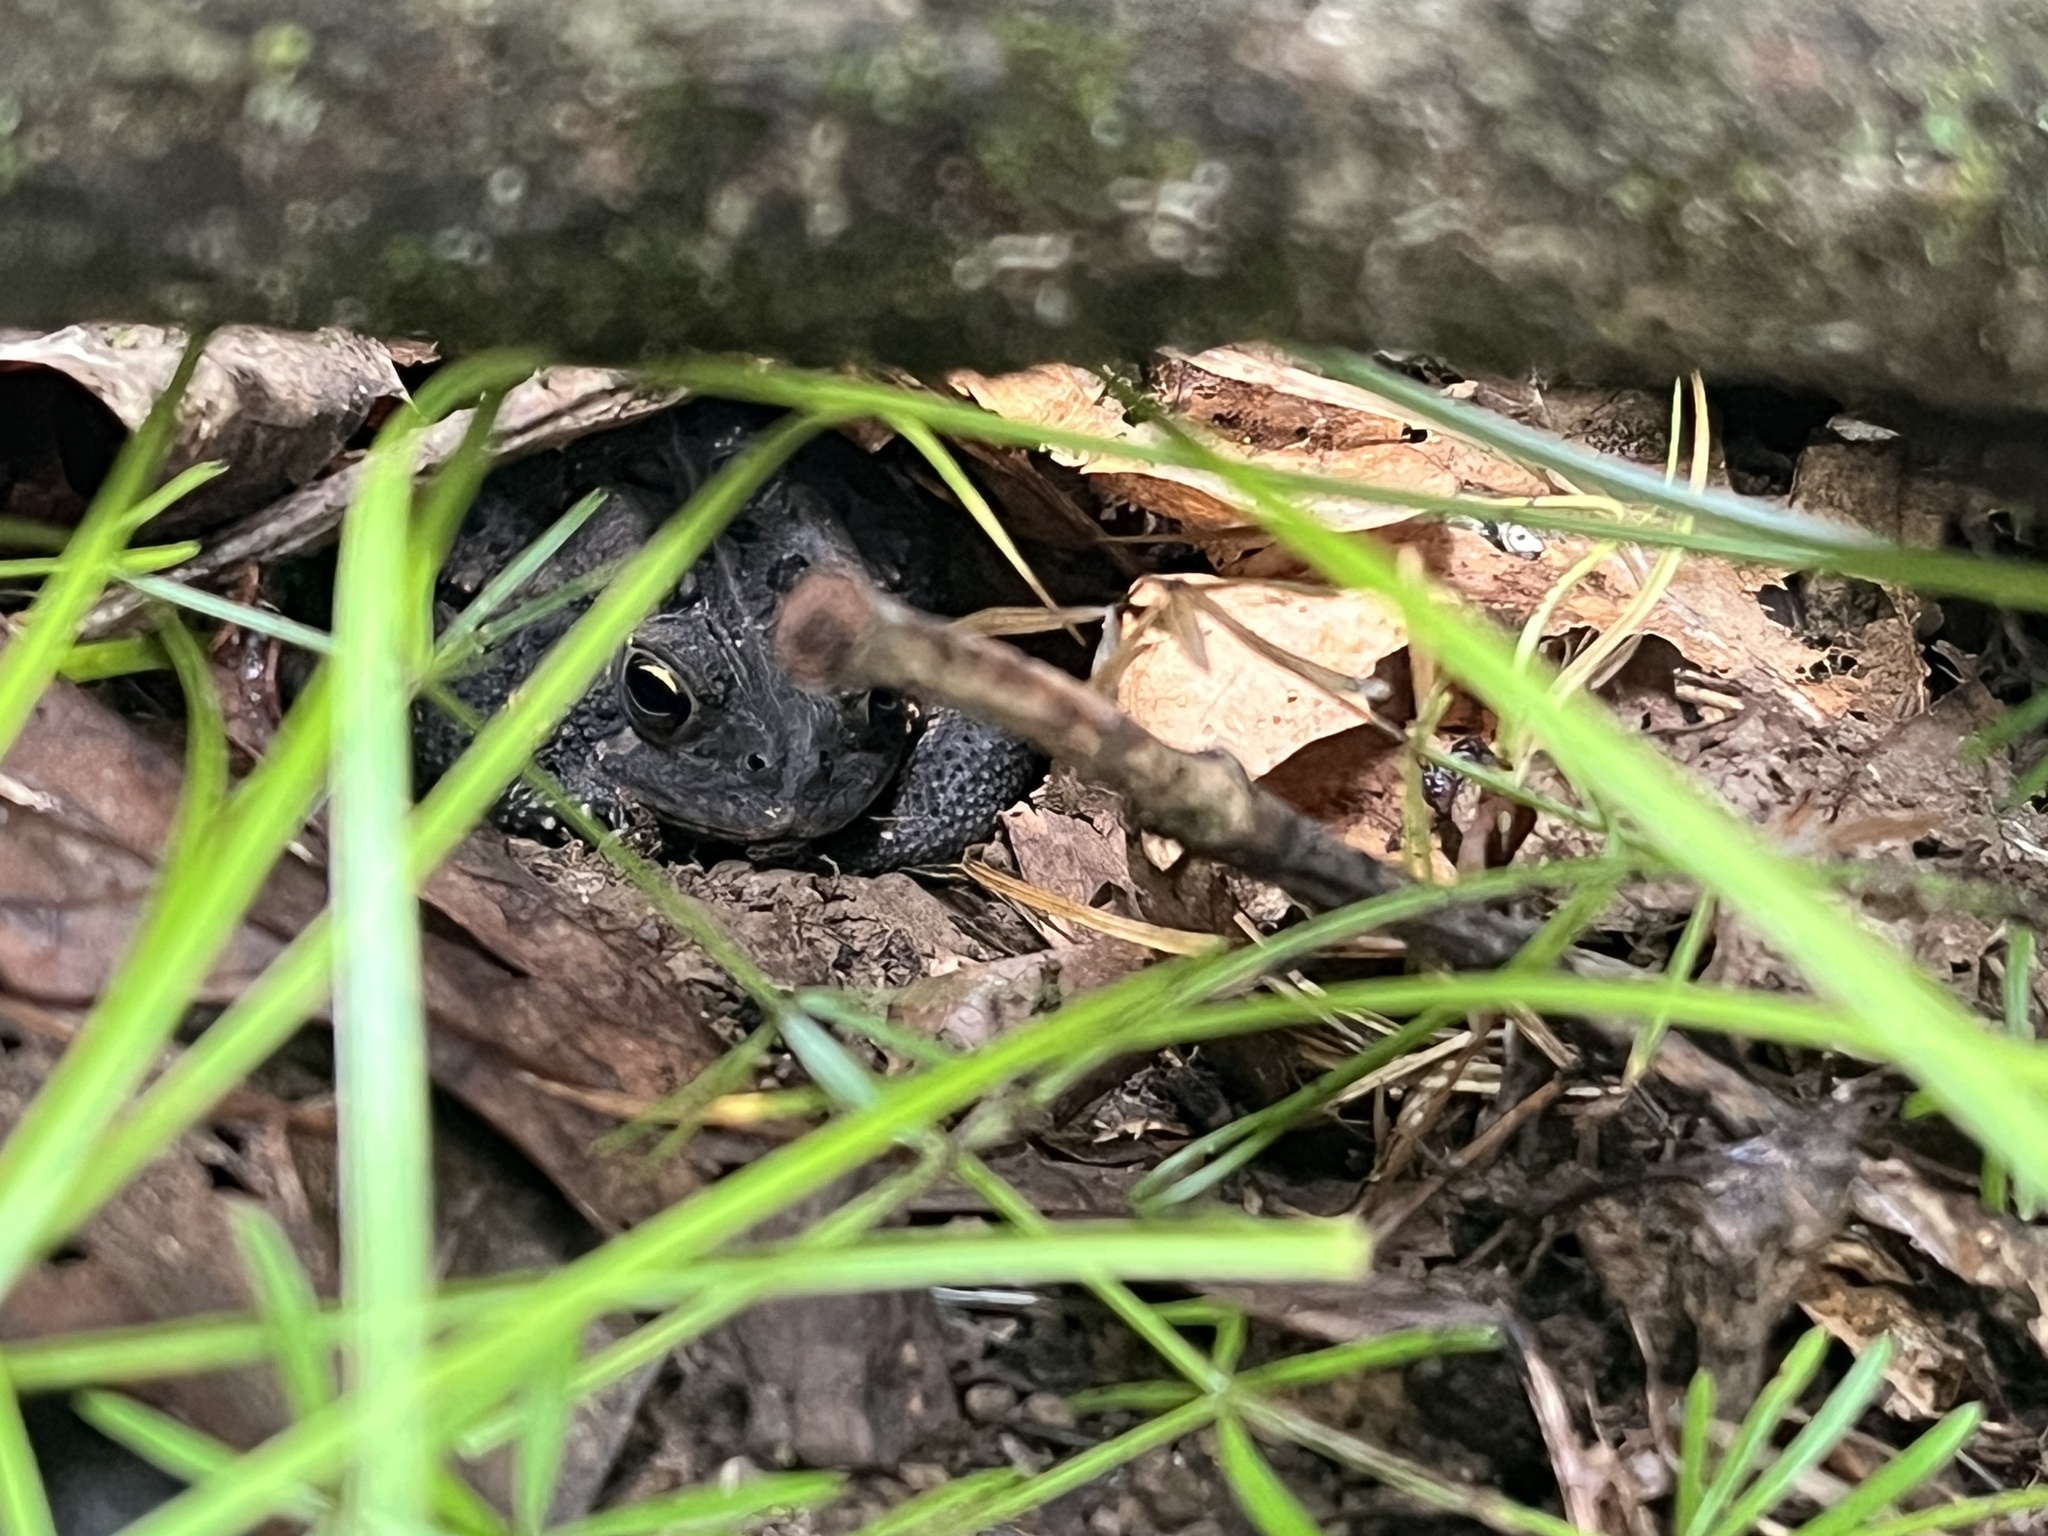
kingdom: Animalia
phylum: Chordata
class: Amphibia
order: Anura
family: Bufonidae
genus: Anaxyrus
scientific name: Anaxyrus americanus
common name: American toad
